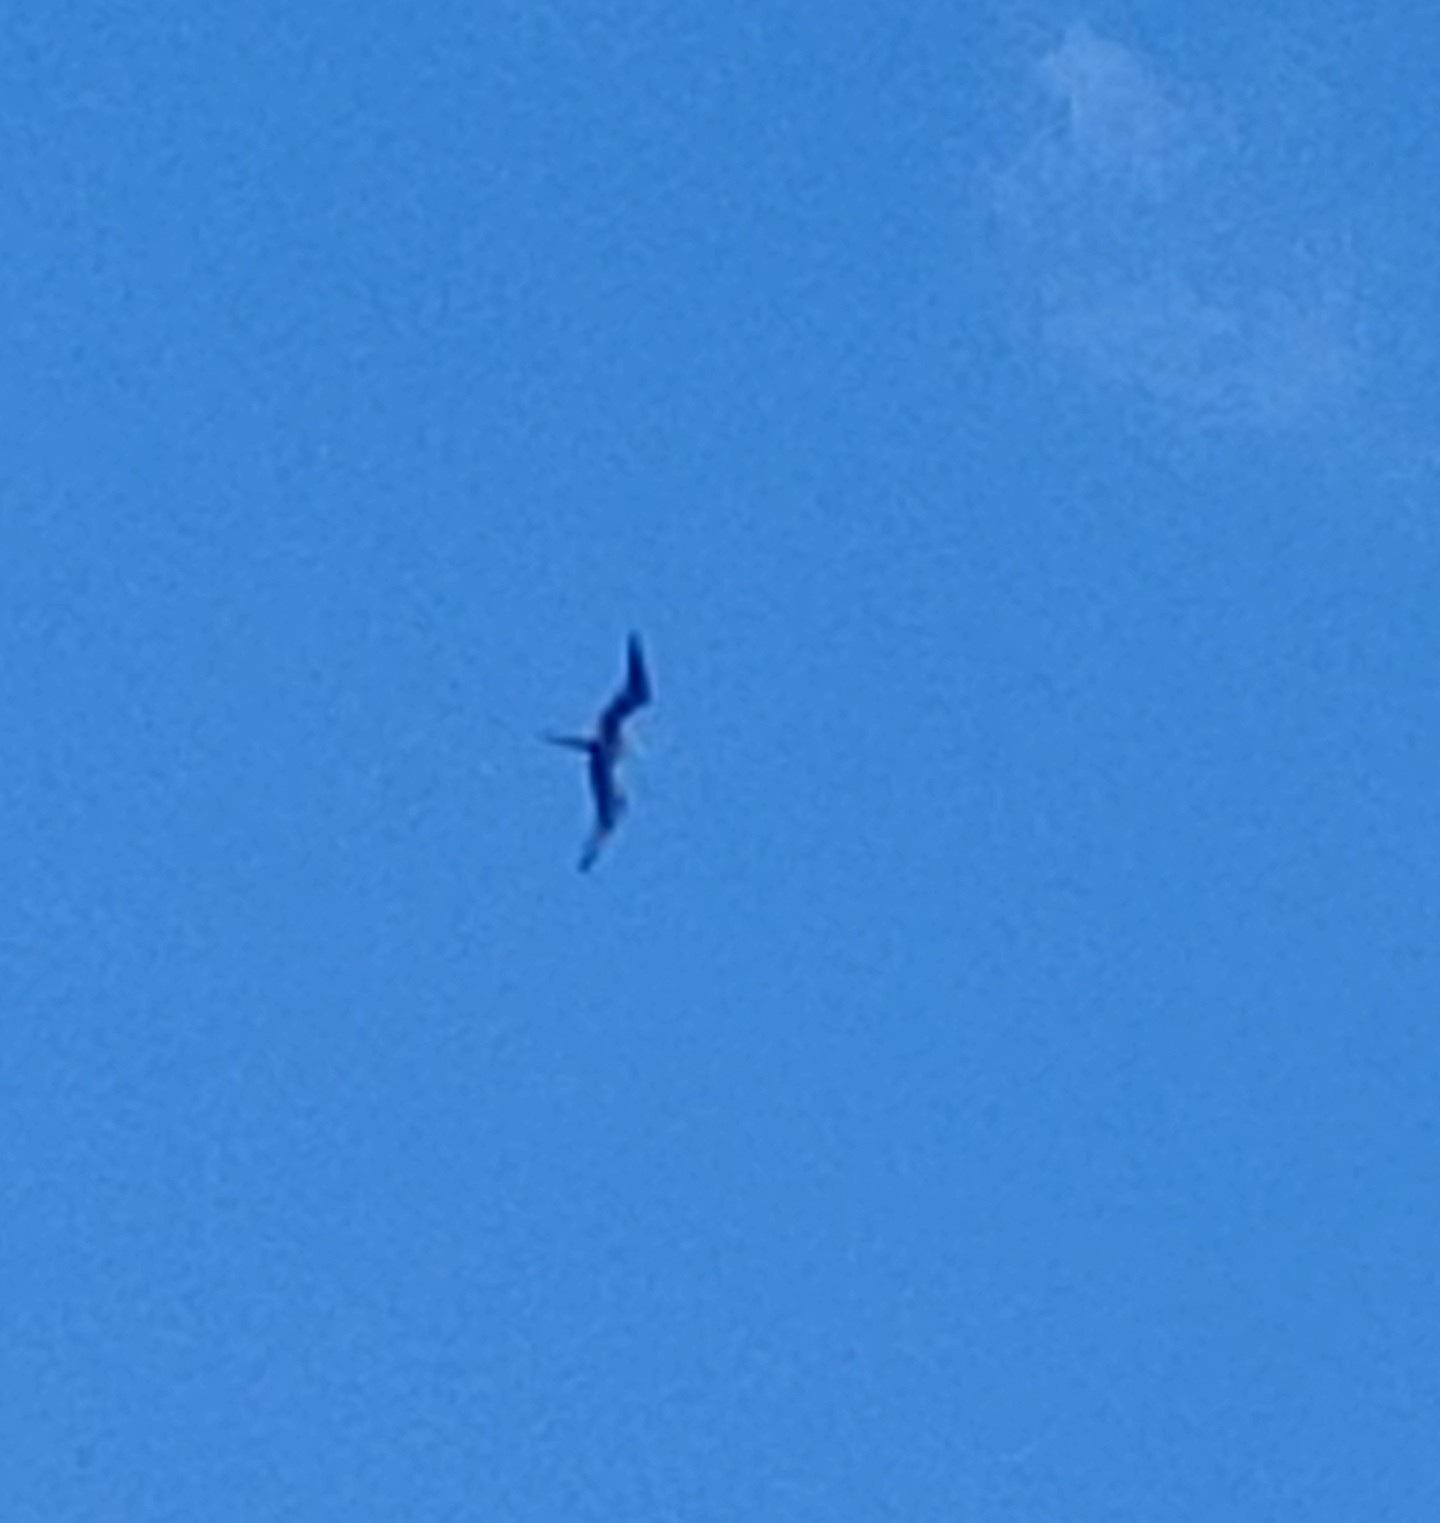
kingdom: Animalia
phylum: Chordata
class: Aves
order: Suliformes
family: Fregatidae
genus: Fregata
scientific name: Fregata magnificens
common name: Magnificent frigatebird
